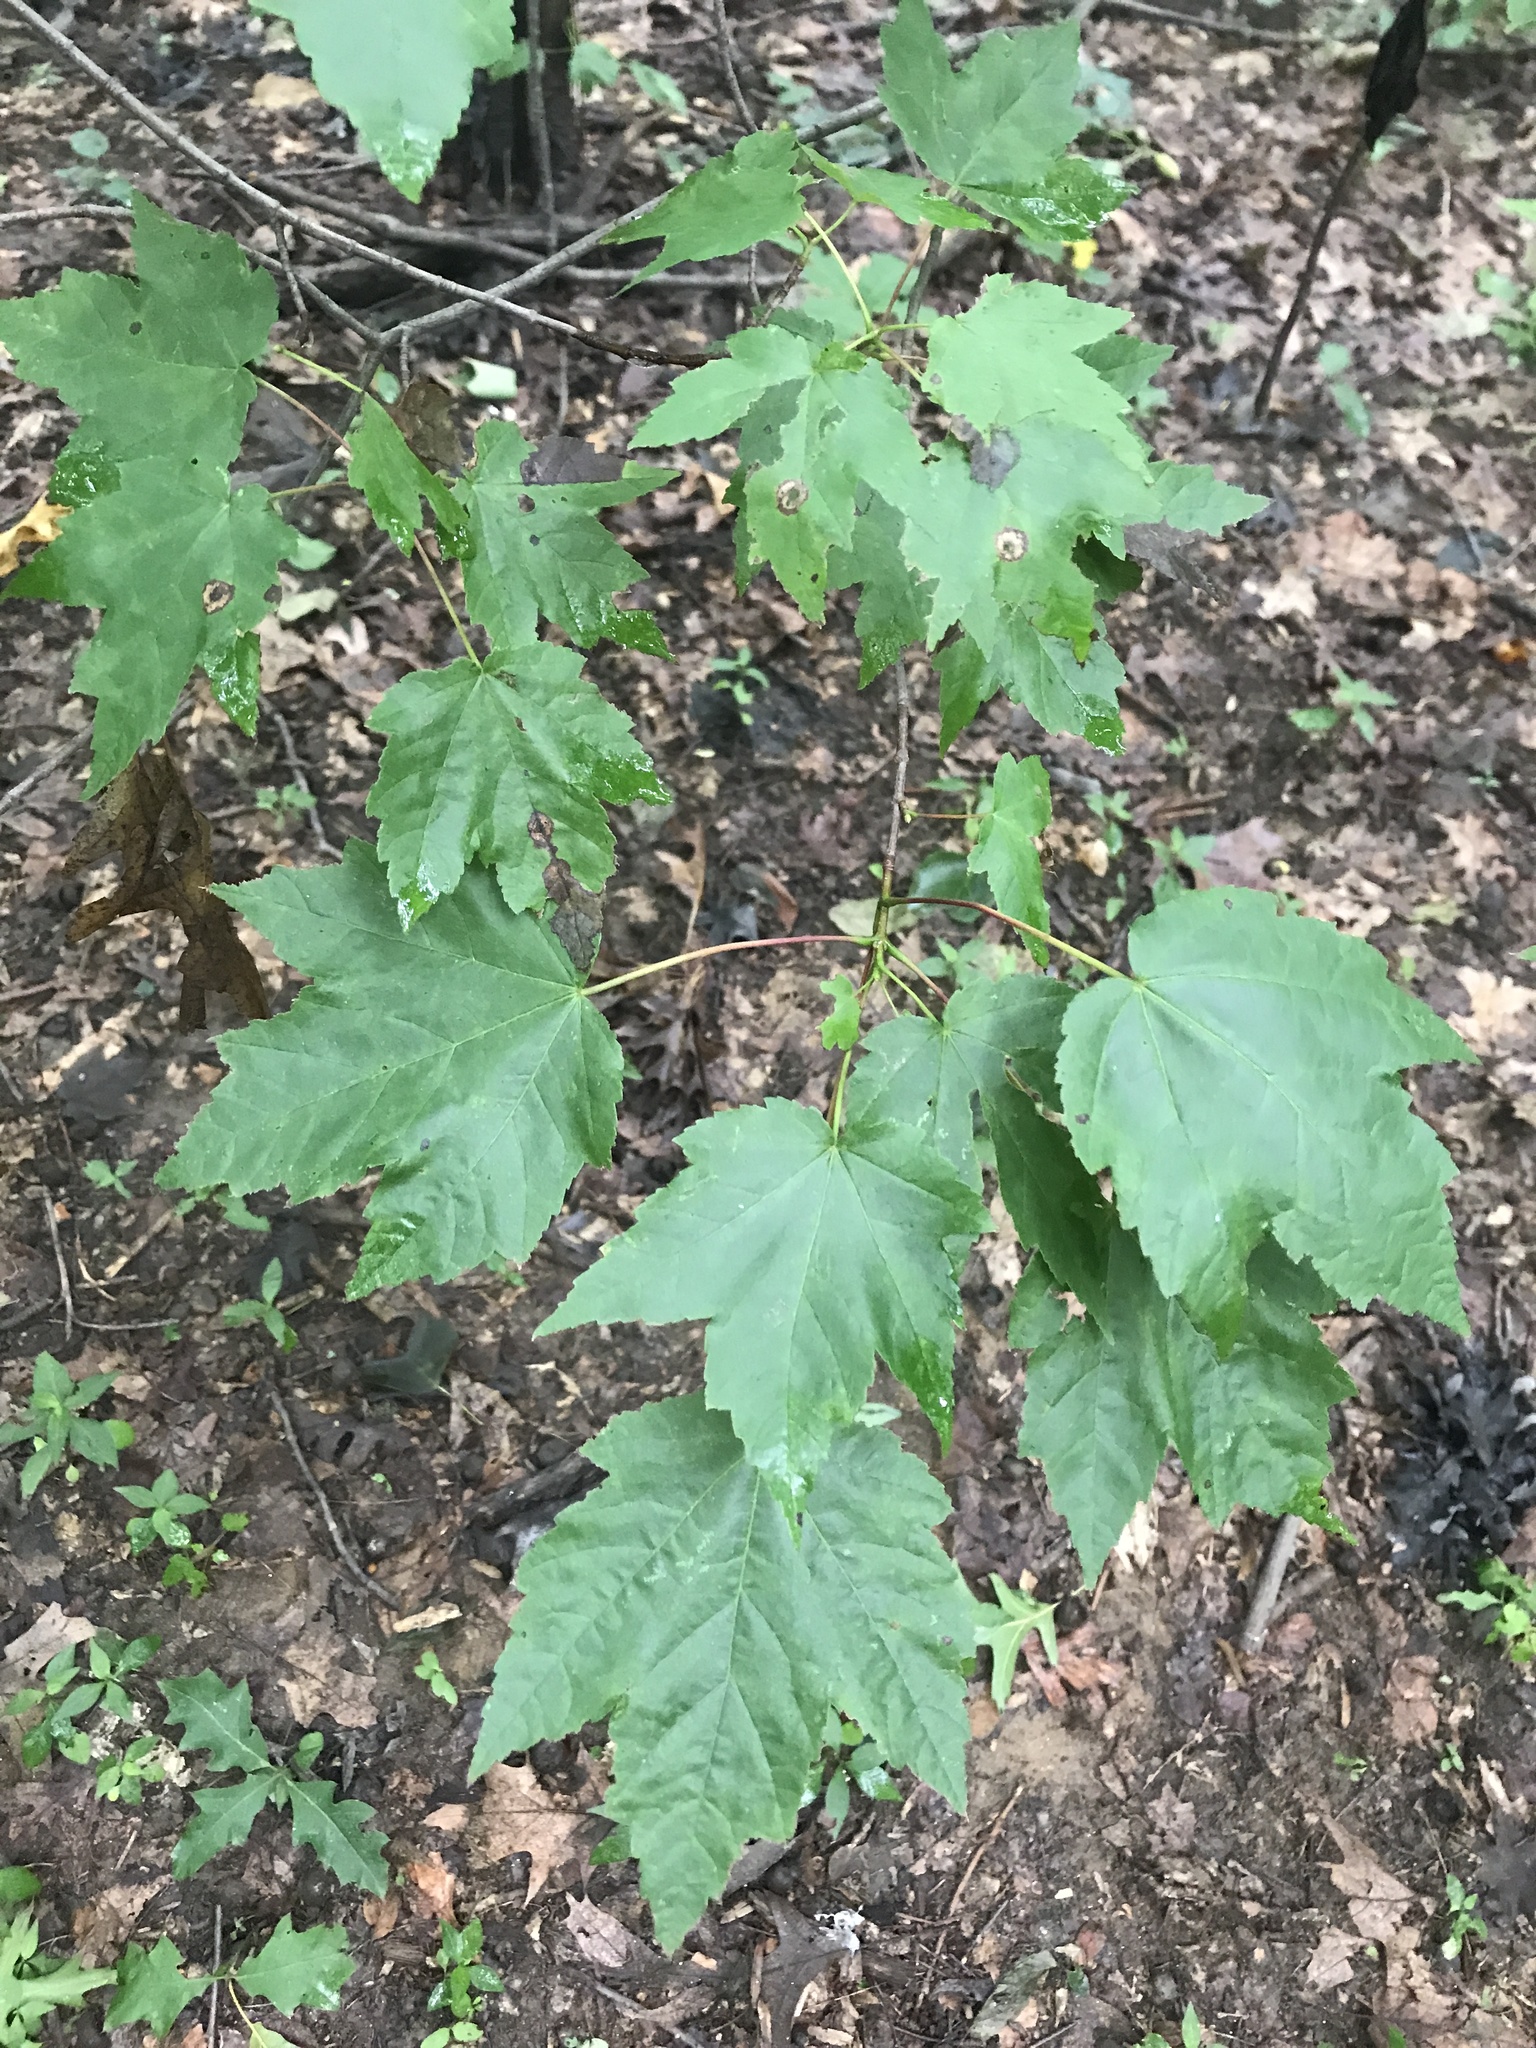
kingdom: Plantae
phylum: Tracheophyta
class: Magnoliopsida
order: Sapindales
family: Sapindaceae
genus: Acer
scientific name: Acer rubrum
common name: Red maple
